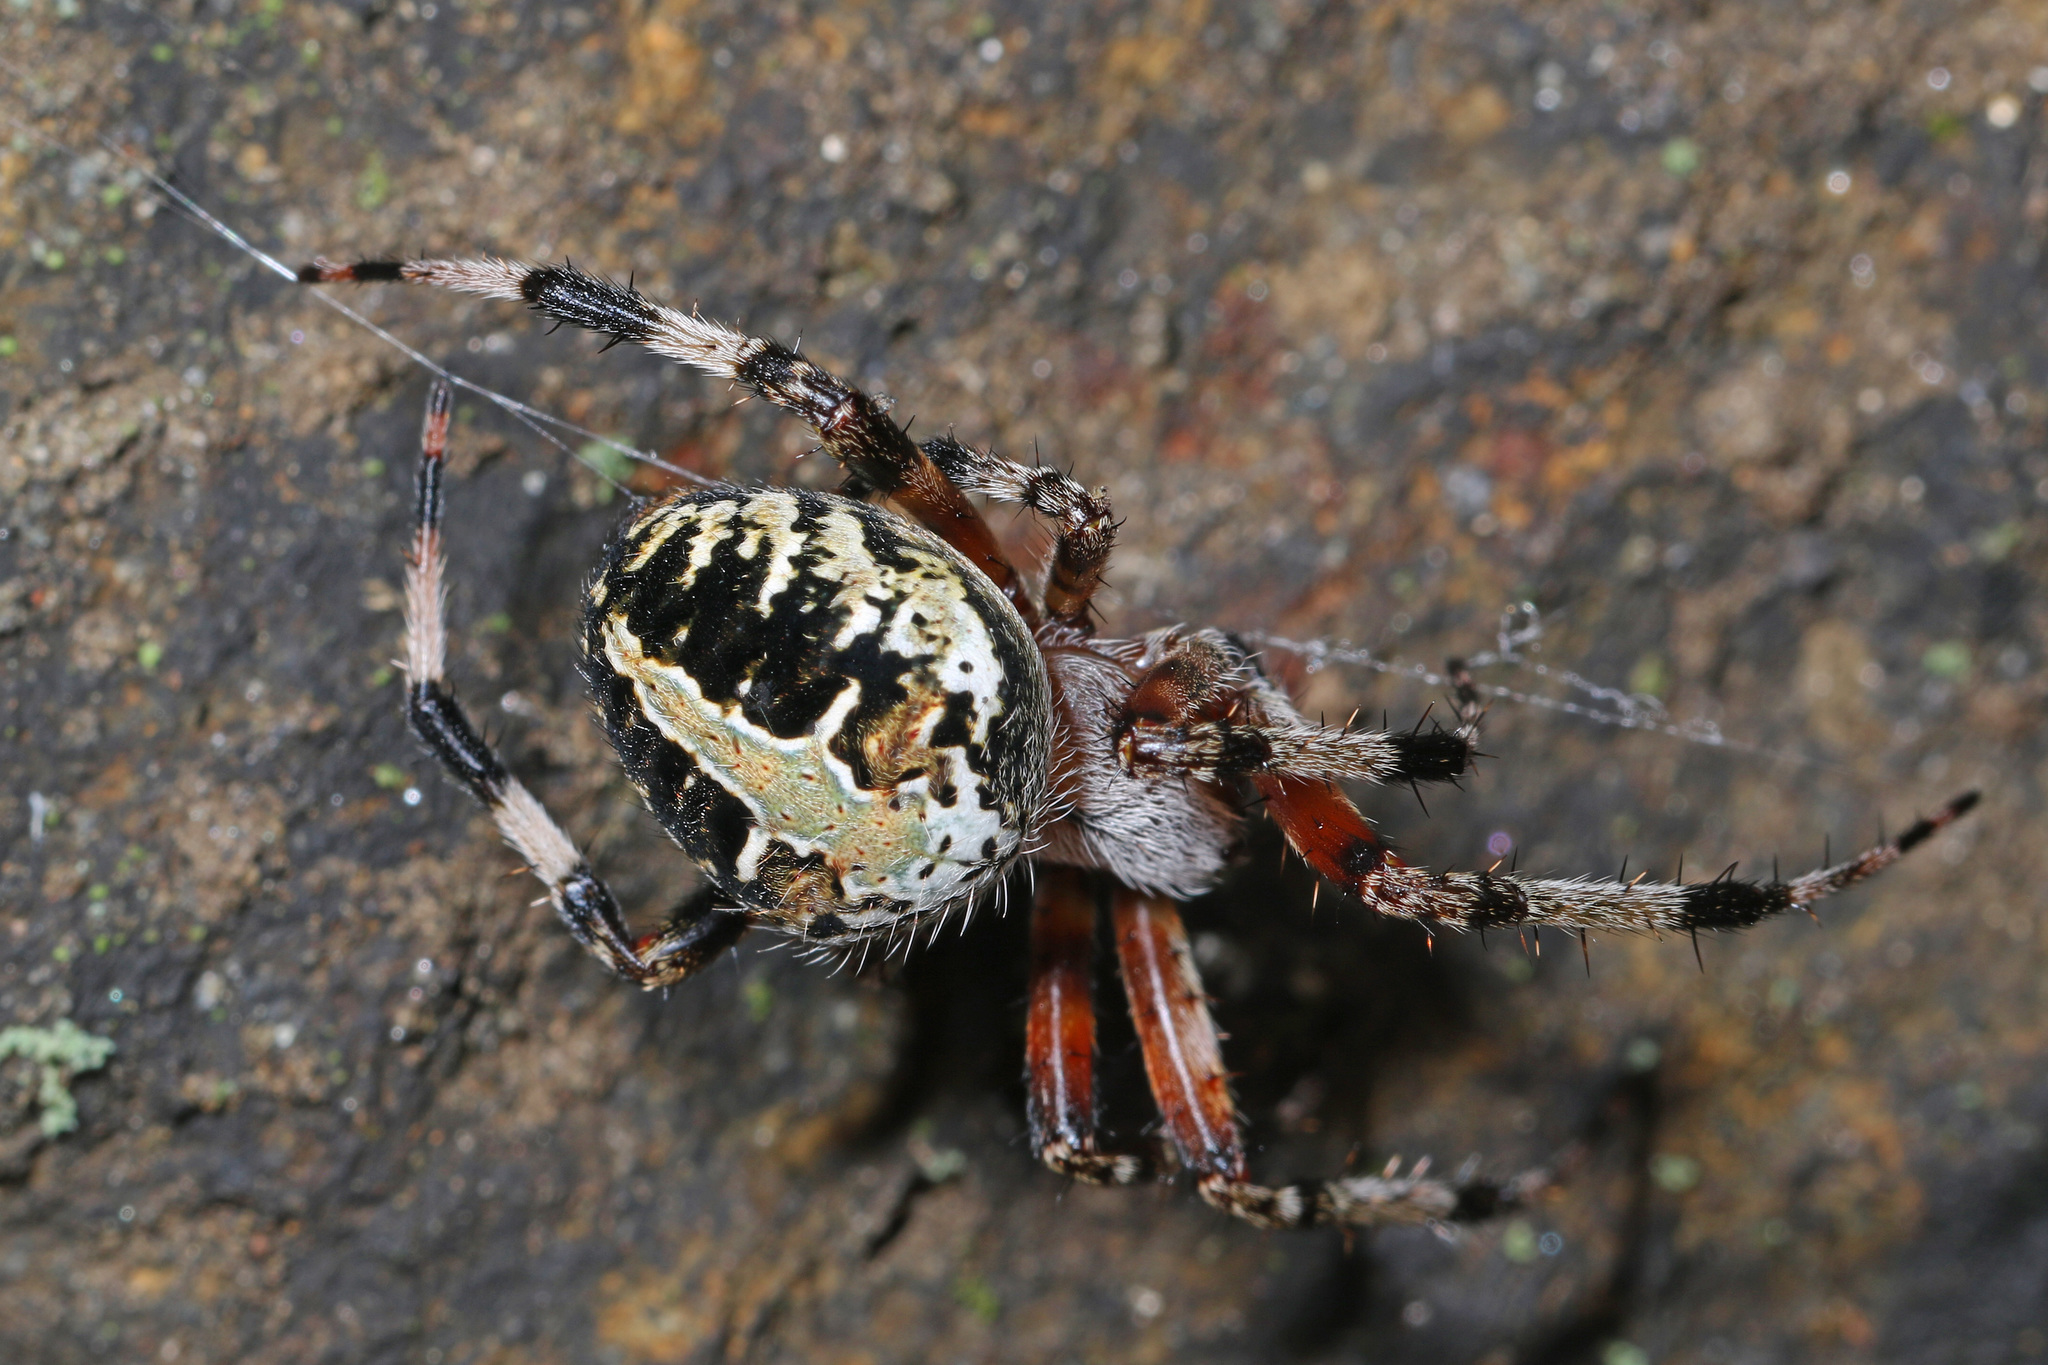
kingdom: Animalia
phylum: Arthropoda
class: Arachnida
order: Araneae
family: Araneidae
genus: Neoscona
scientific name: Neoscona domiciliorum
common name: Red-femured spotted orbweaver
